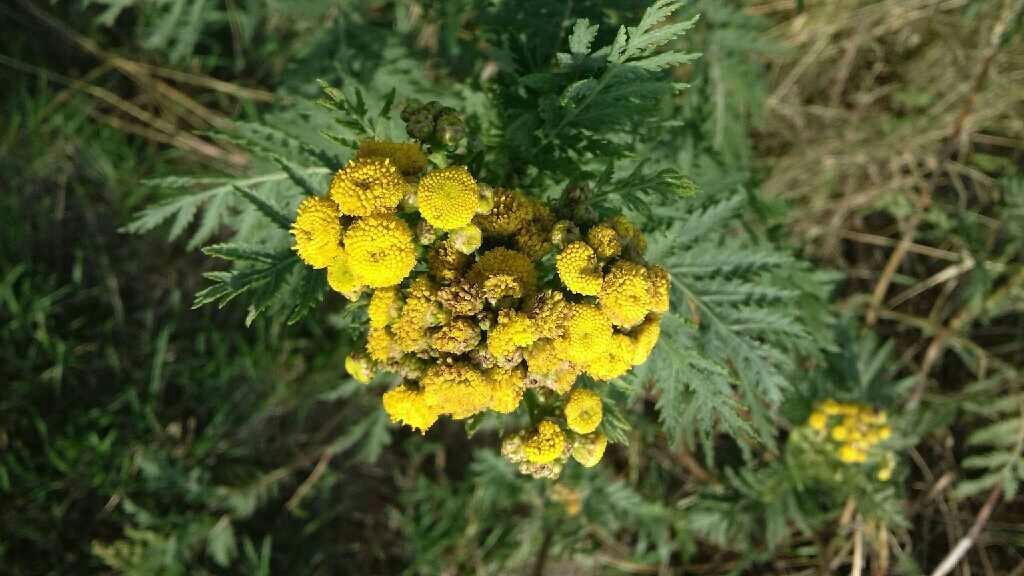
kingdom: Plantae
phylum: Tracheophyta
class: Magnoliopsida
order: Asterales
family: Asteraceae
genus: Tanacetum
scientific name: Tanacetum vulgare
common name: Common tansy
